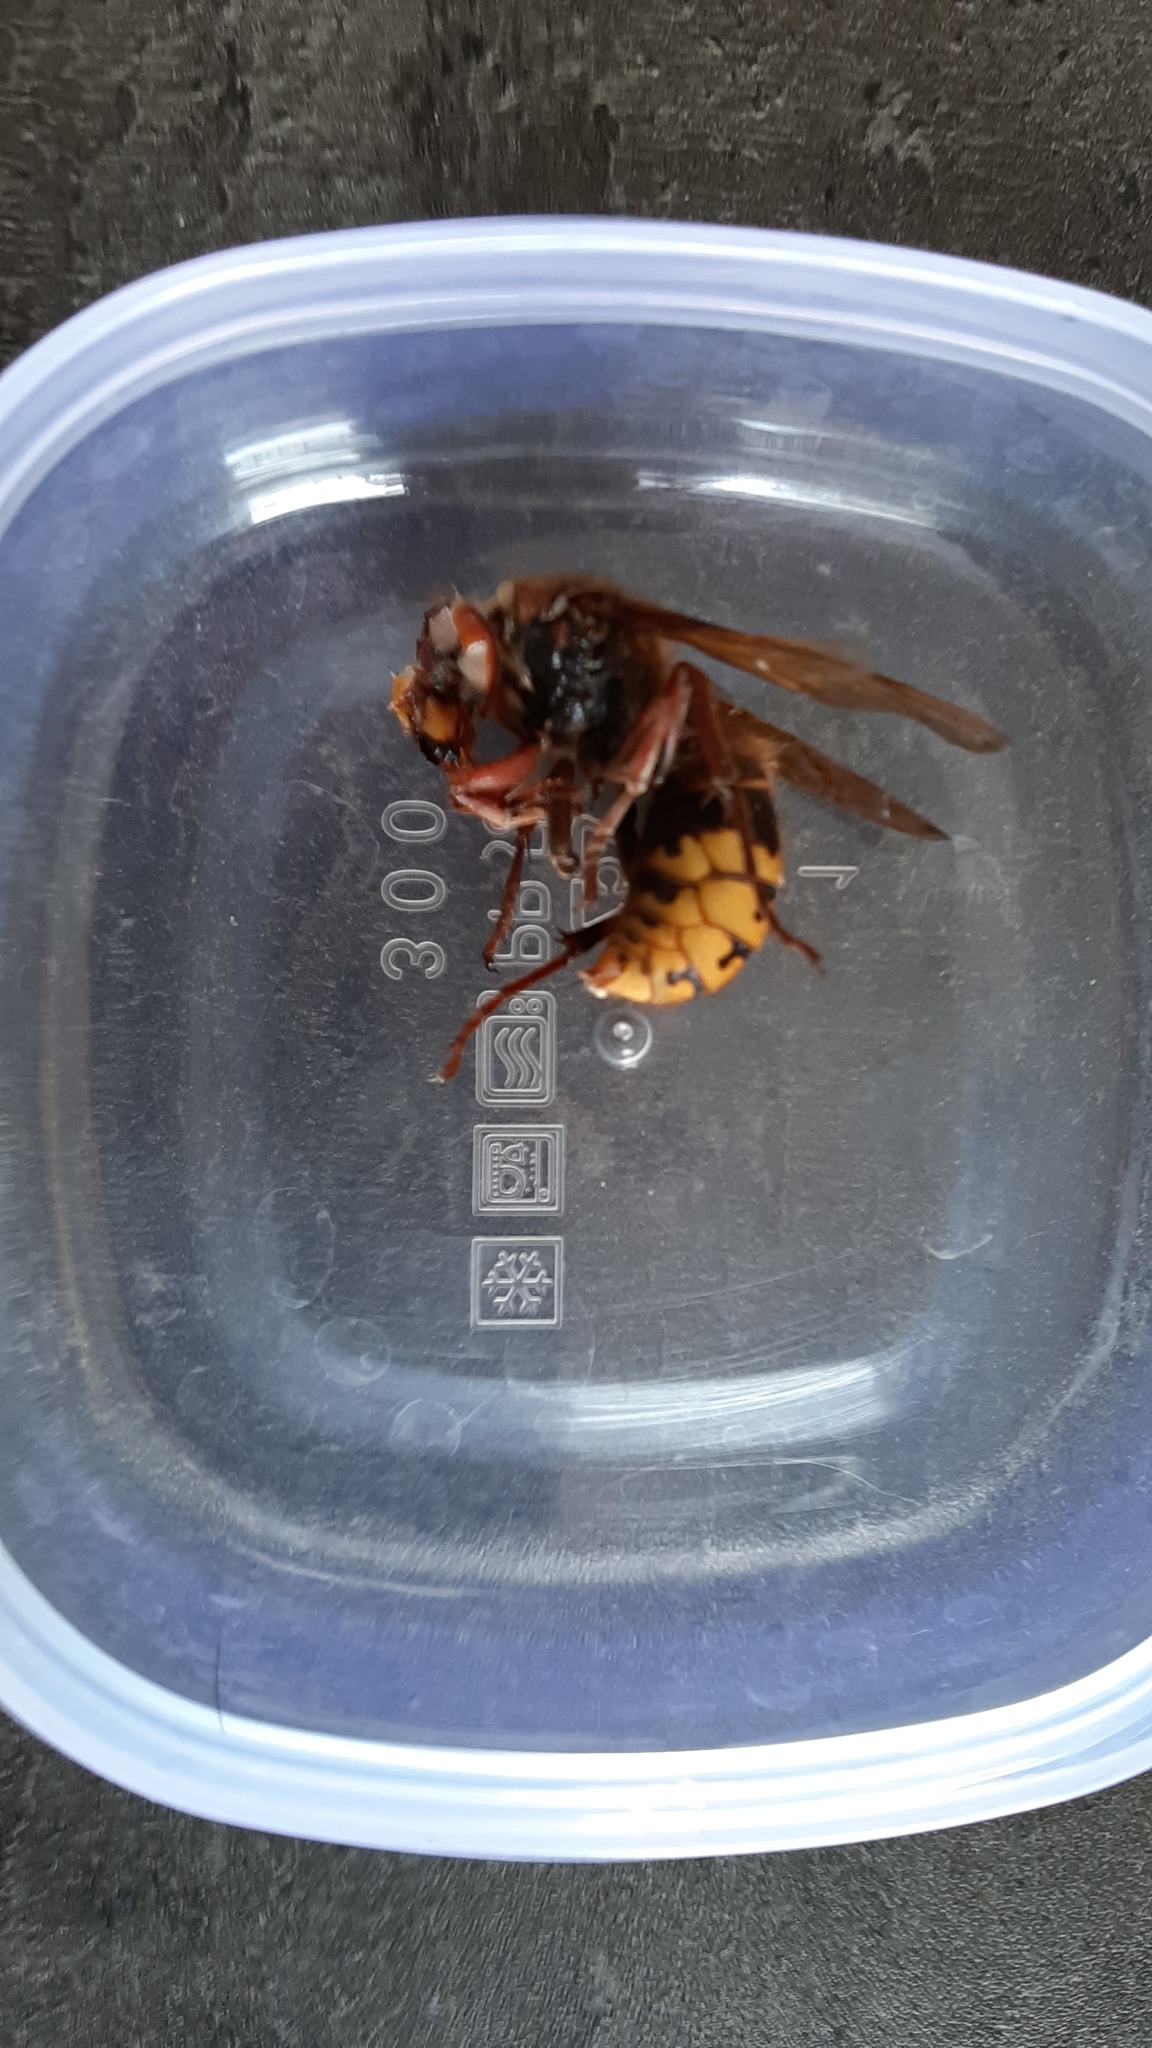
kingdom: Animalia
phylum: Arthropoda
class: Insecta
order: Hymenoptera
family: Vespidae
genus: Vespa
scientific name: Vespa crabro
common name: Hornet
